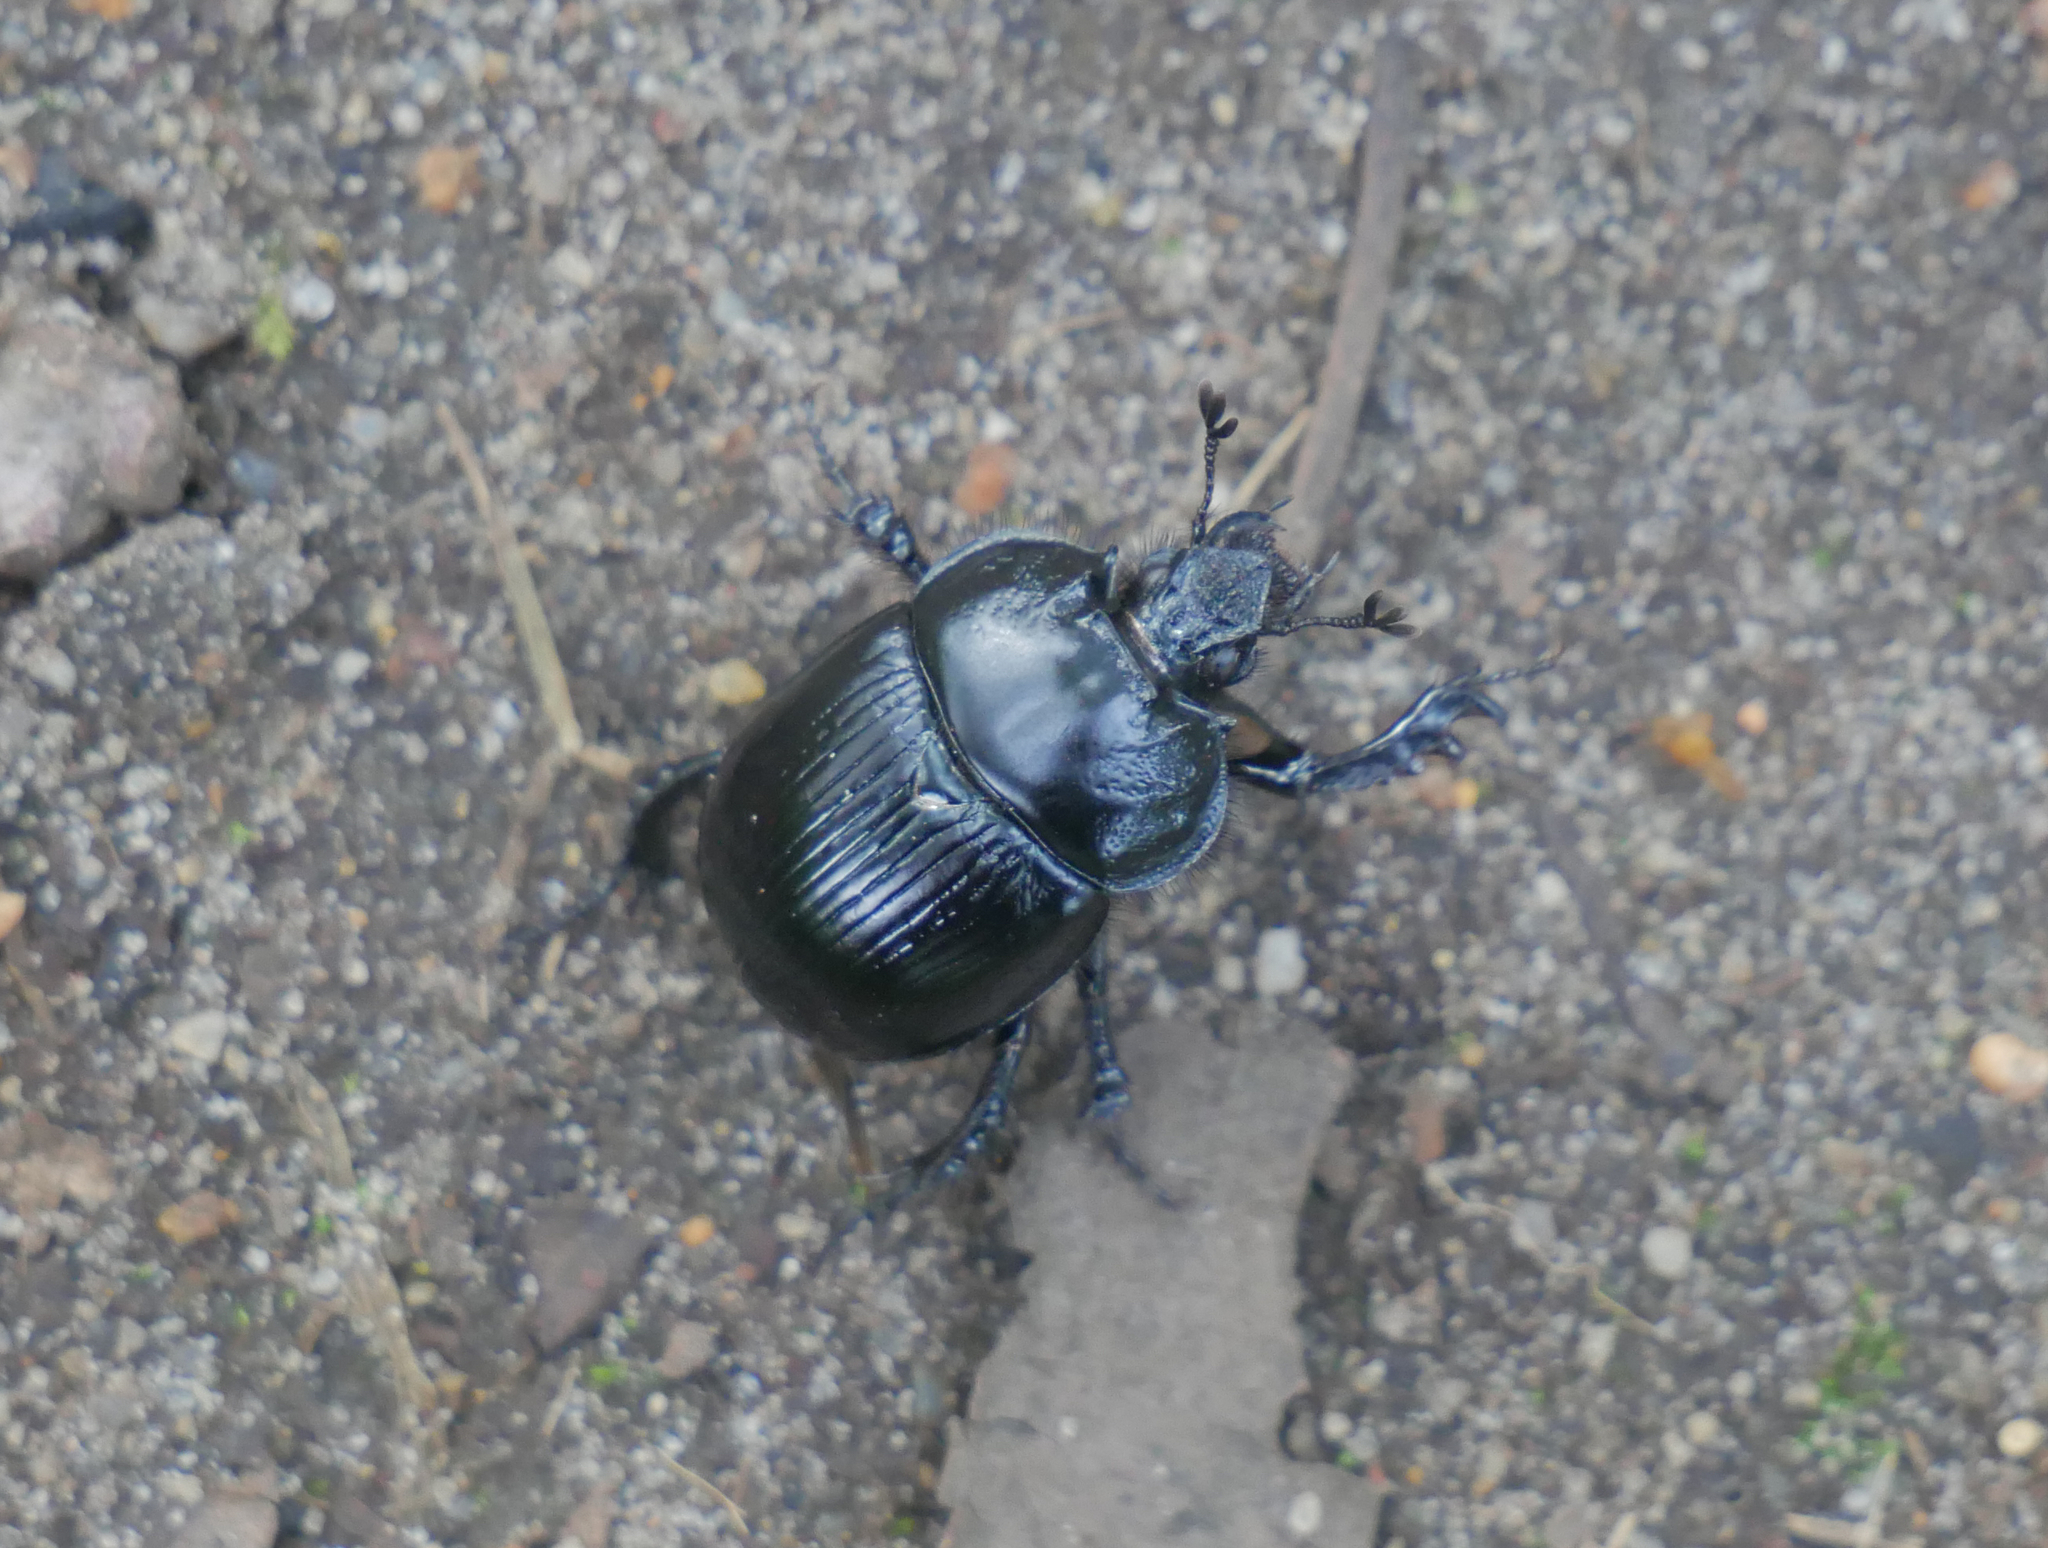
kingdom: Animalia
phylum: Arthropoda
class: Insecta
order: Coleoptera
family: Geotrupidae
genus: Typhaeus
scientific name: Typhaeus typhoeus
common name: Minotaur beetle
